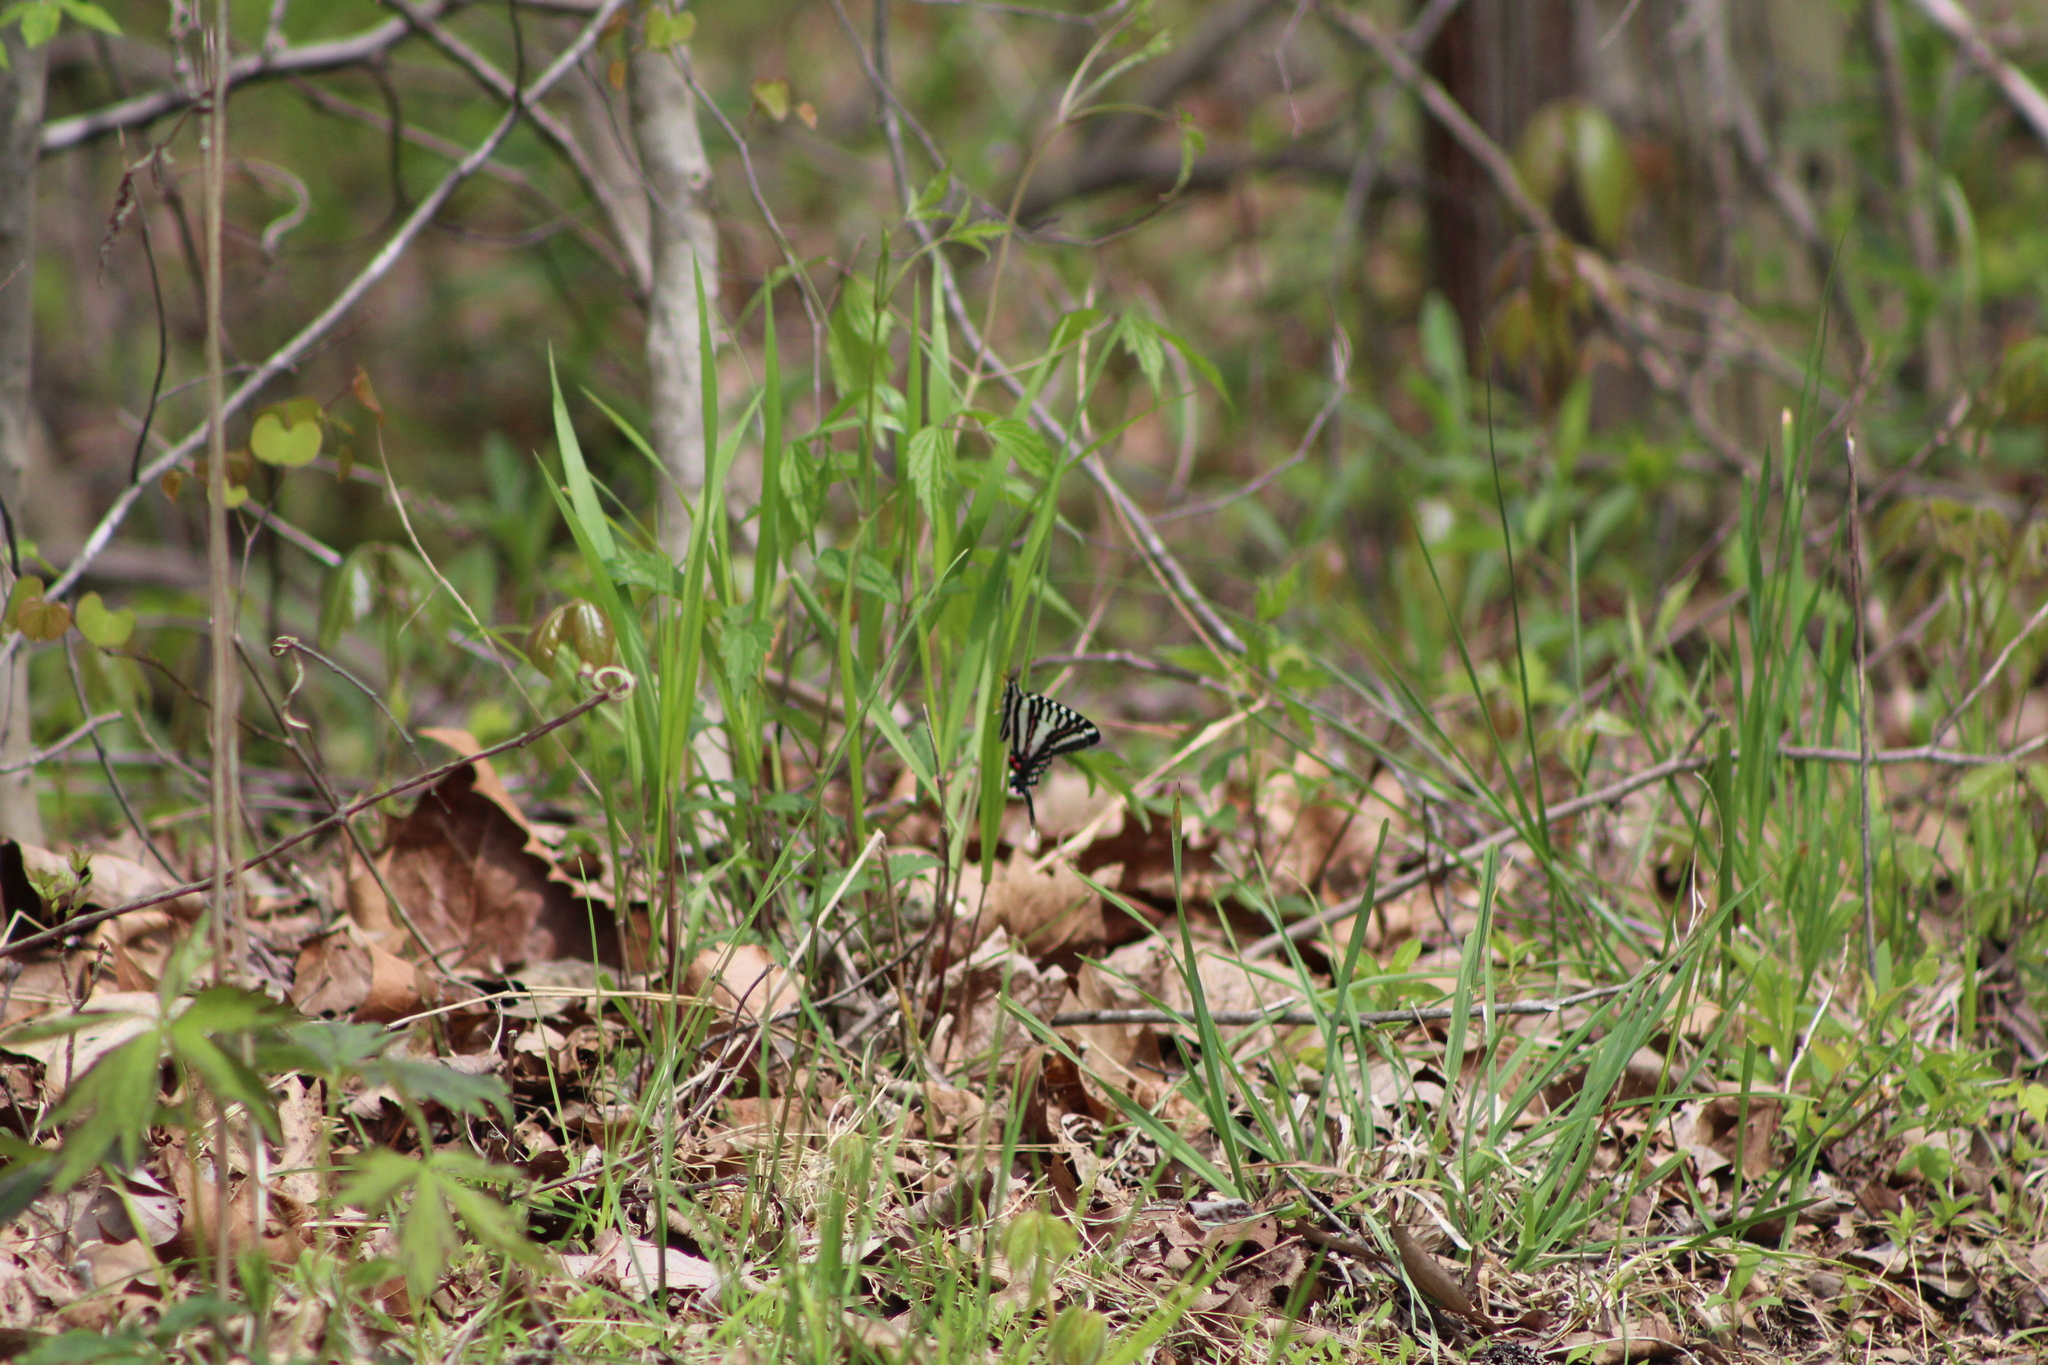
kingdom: Animalia
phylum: Arthropoda
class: Insecta
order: Lepidoptera
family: Papilionidae
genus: Protographium
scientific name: Protographium marcellus
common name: Zebra swallowtail
